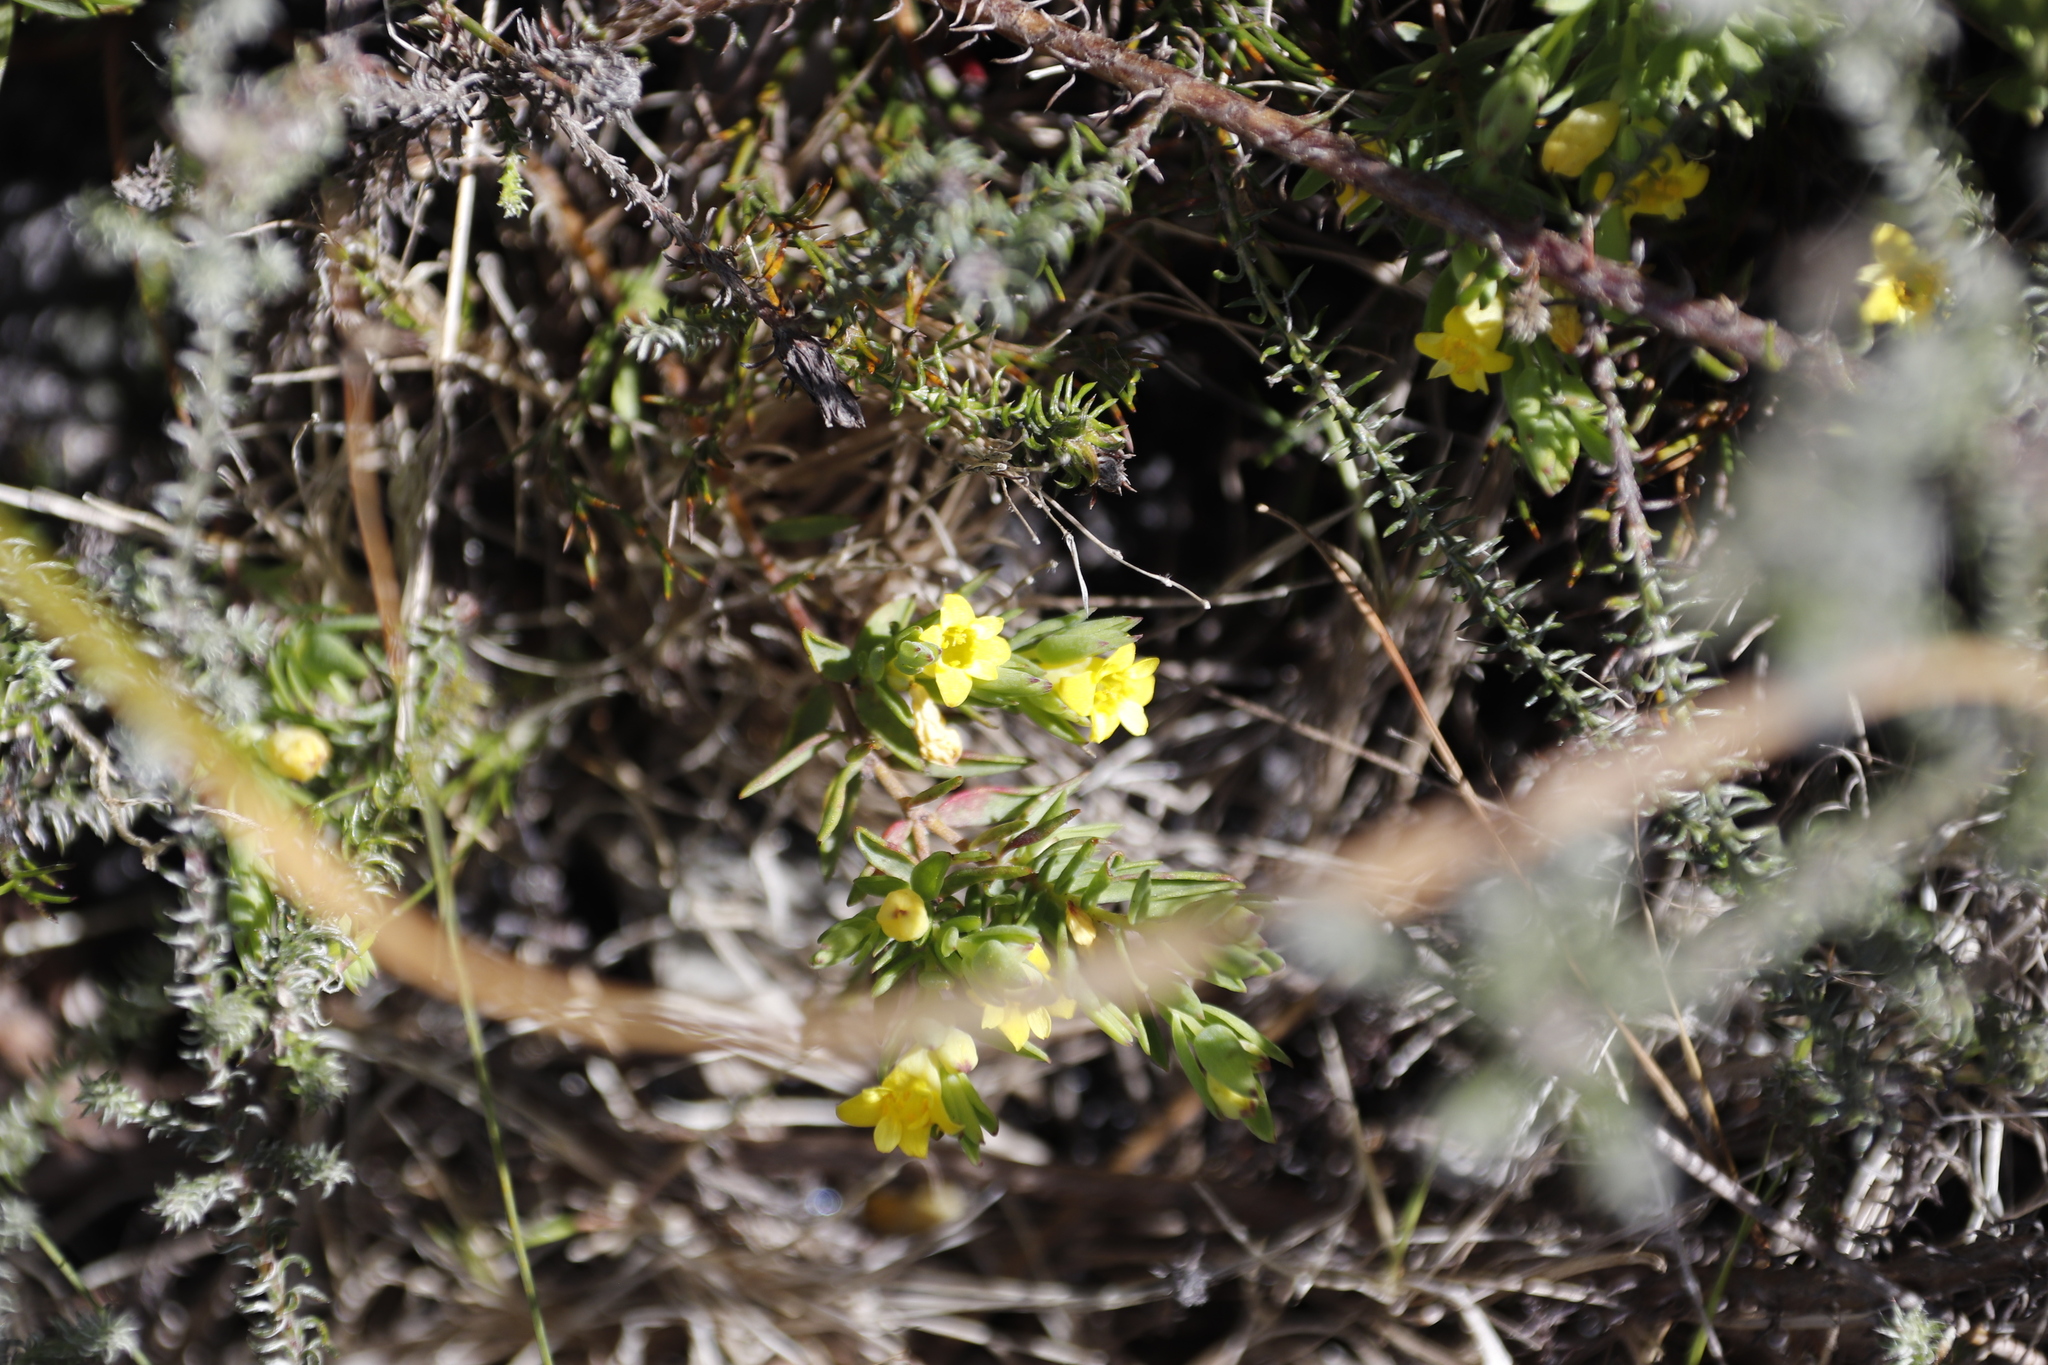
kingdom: Plantae
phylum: Tracheophyta
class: Magnoliopsida
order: Malvales
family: Thymelaeaceae
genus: Gnidia
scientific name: Gnidia juniperifolia
